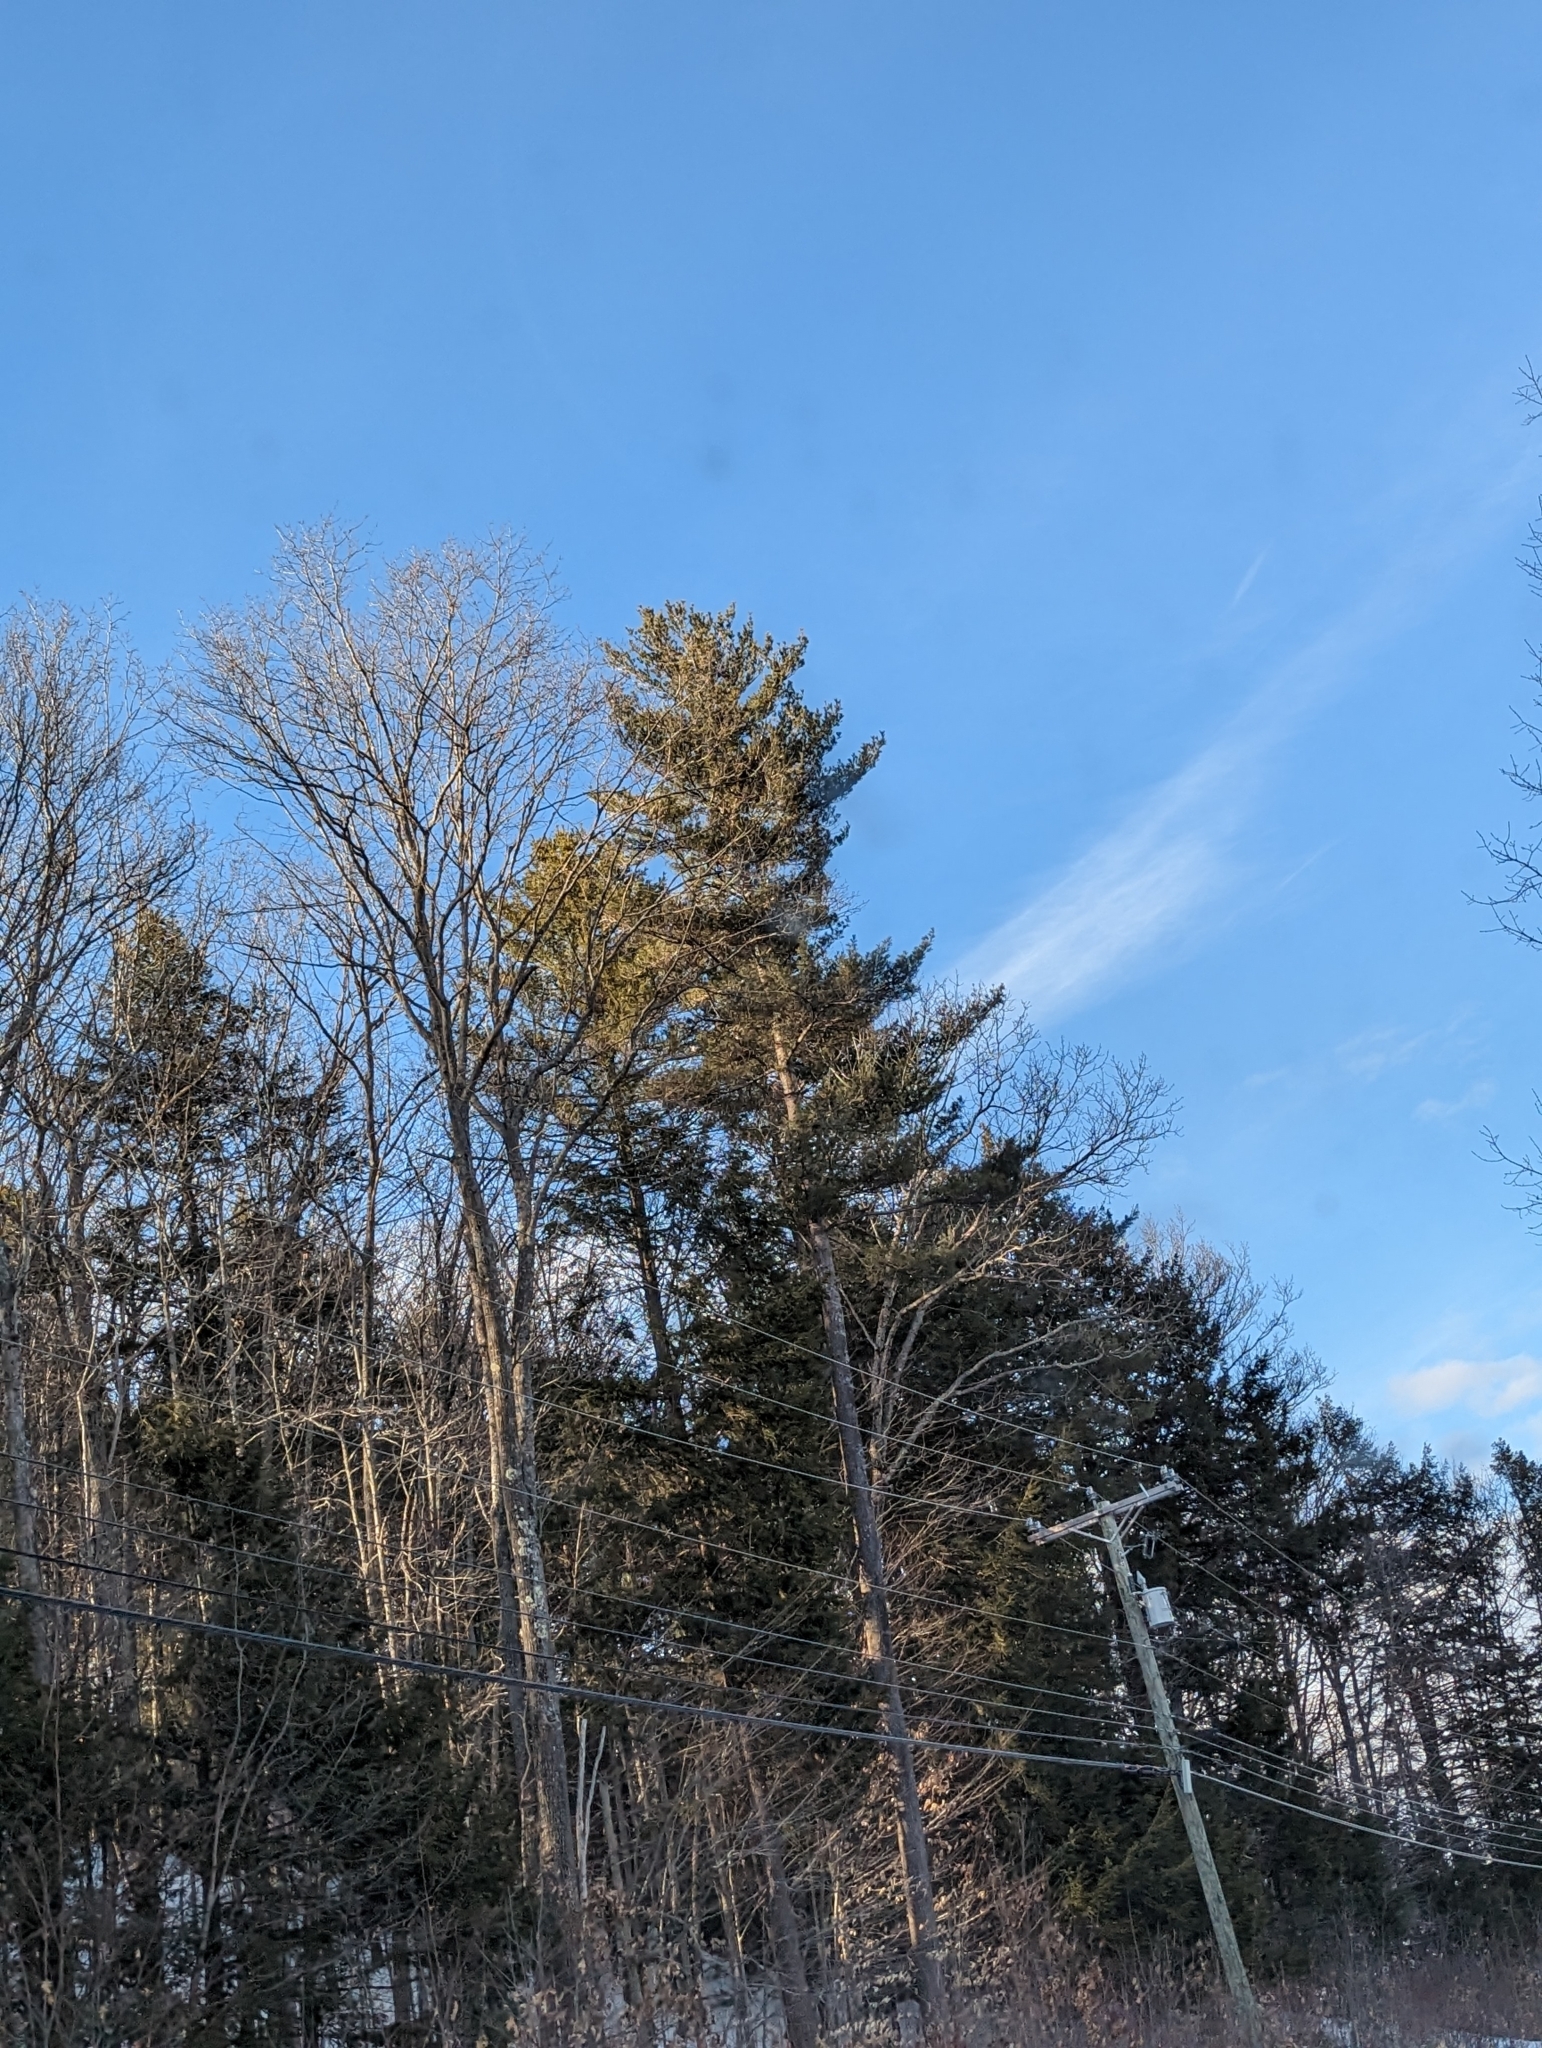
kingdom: Plantae
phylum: Tracheophyta
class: Pinopsida
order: Pinales
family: Pinaceae
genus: Pinus
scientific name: Pinus strobus
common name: Weymouth pine
